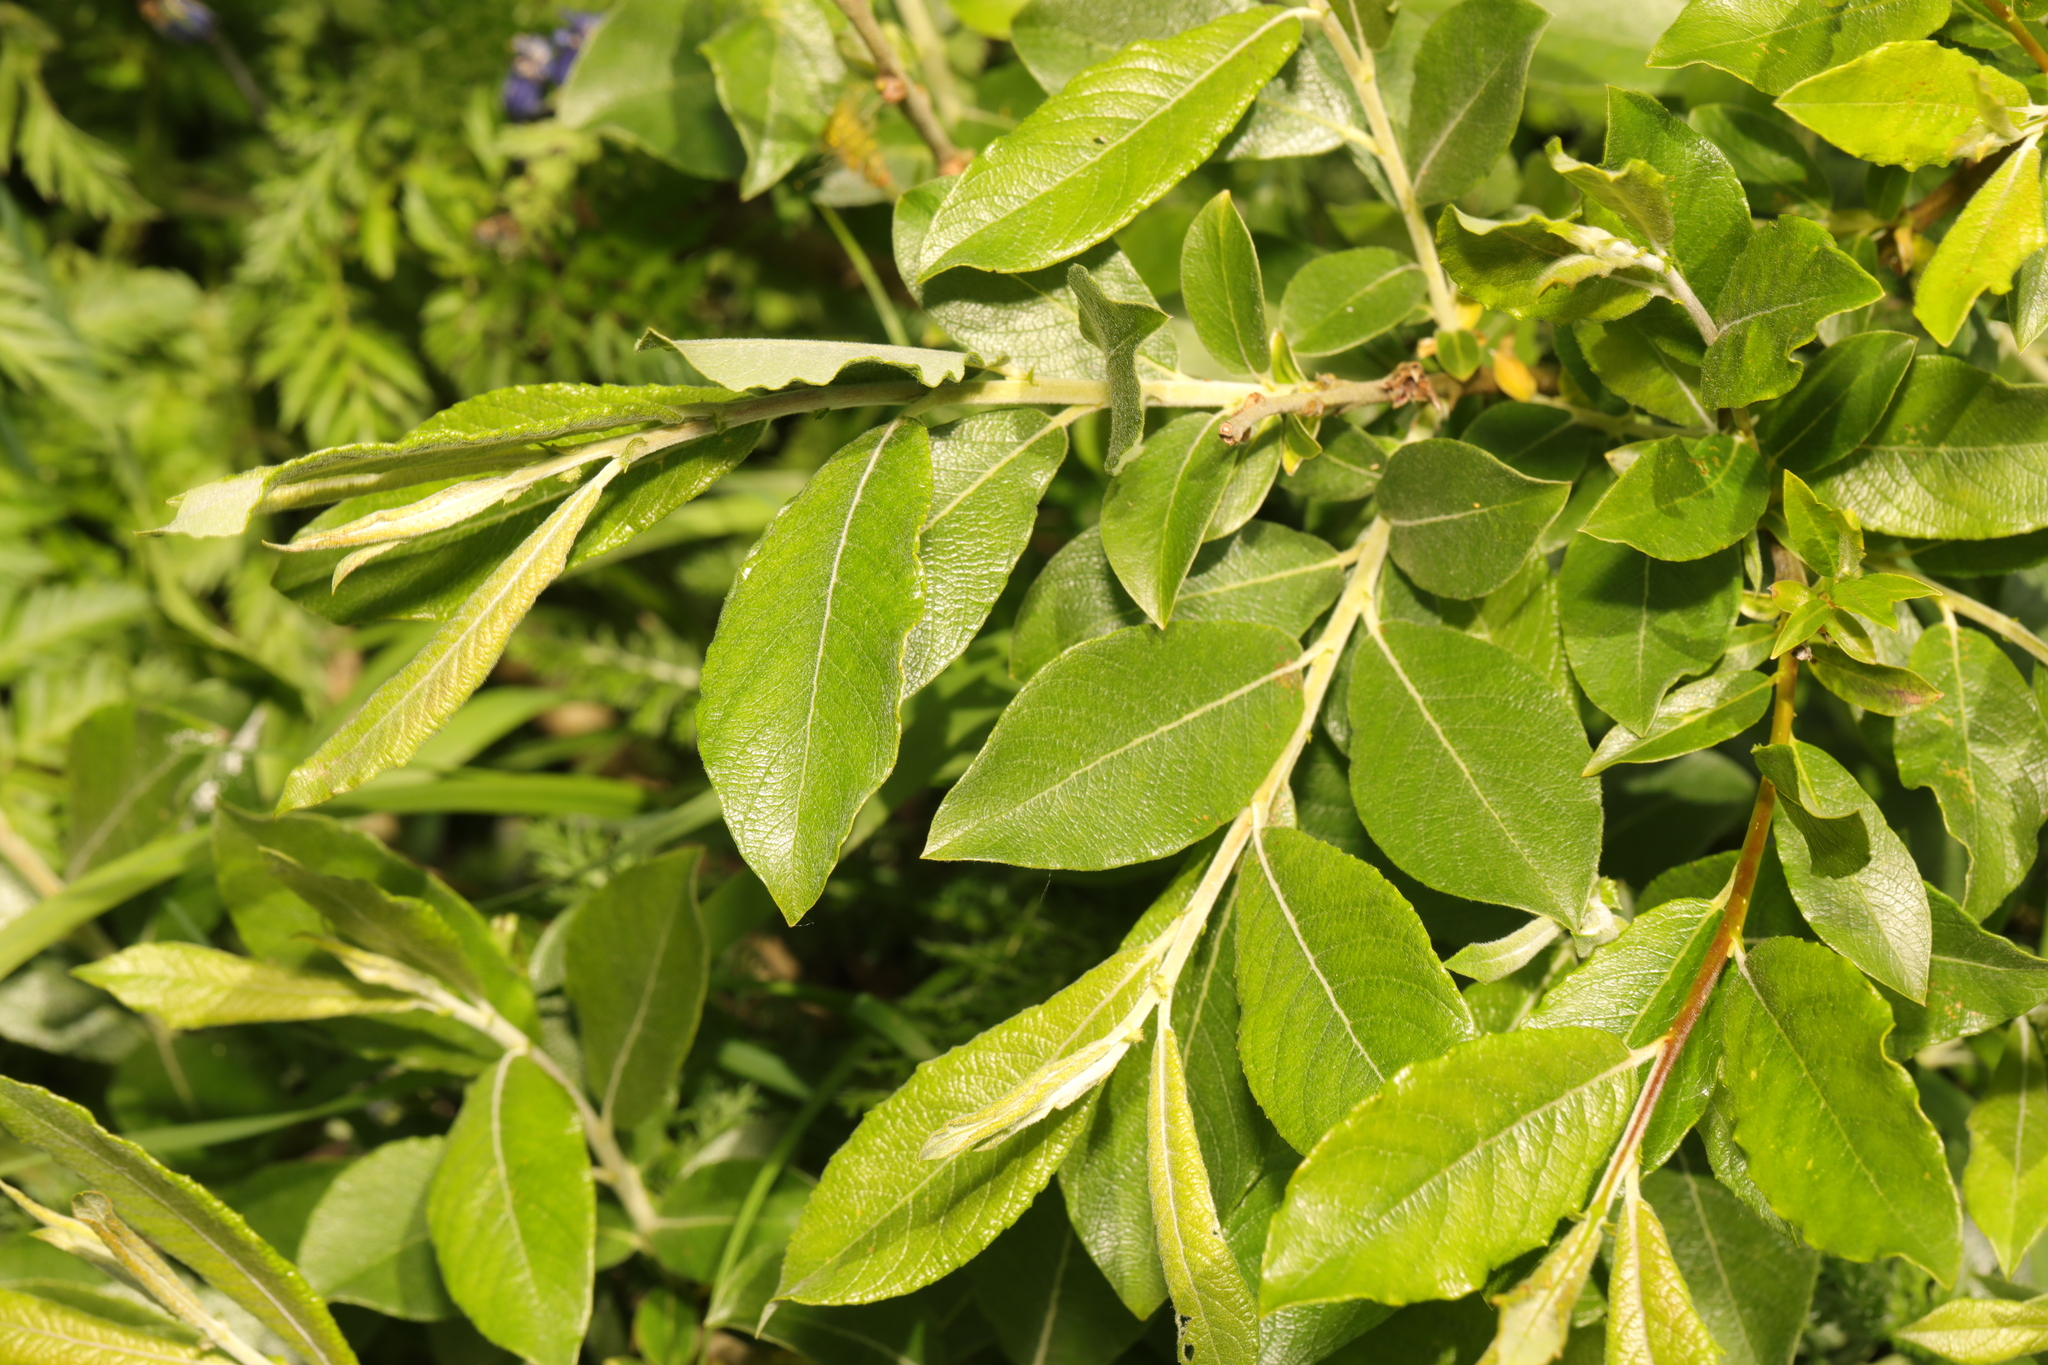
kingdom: Plantae
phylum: Tracheophyta
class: Magnoliopsida
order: Malpighiales
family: Salicaceae
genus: Salix
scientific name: Salix cinerea
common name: Common sallow
